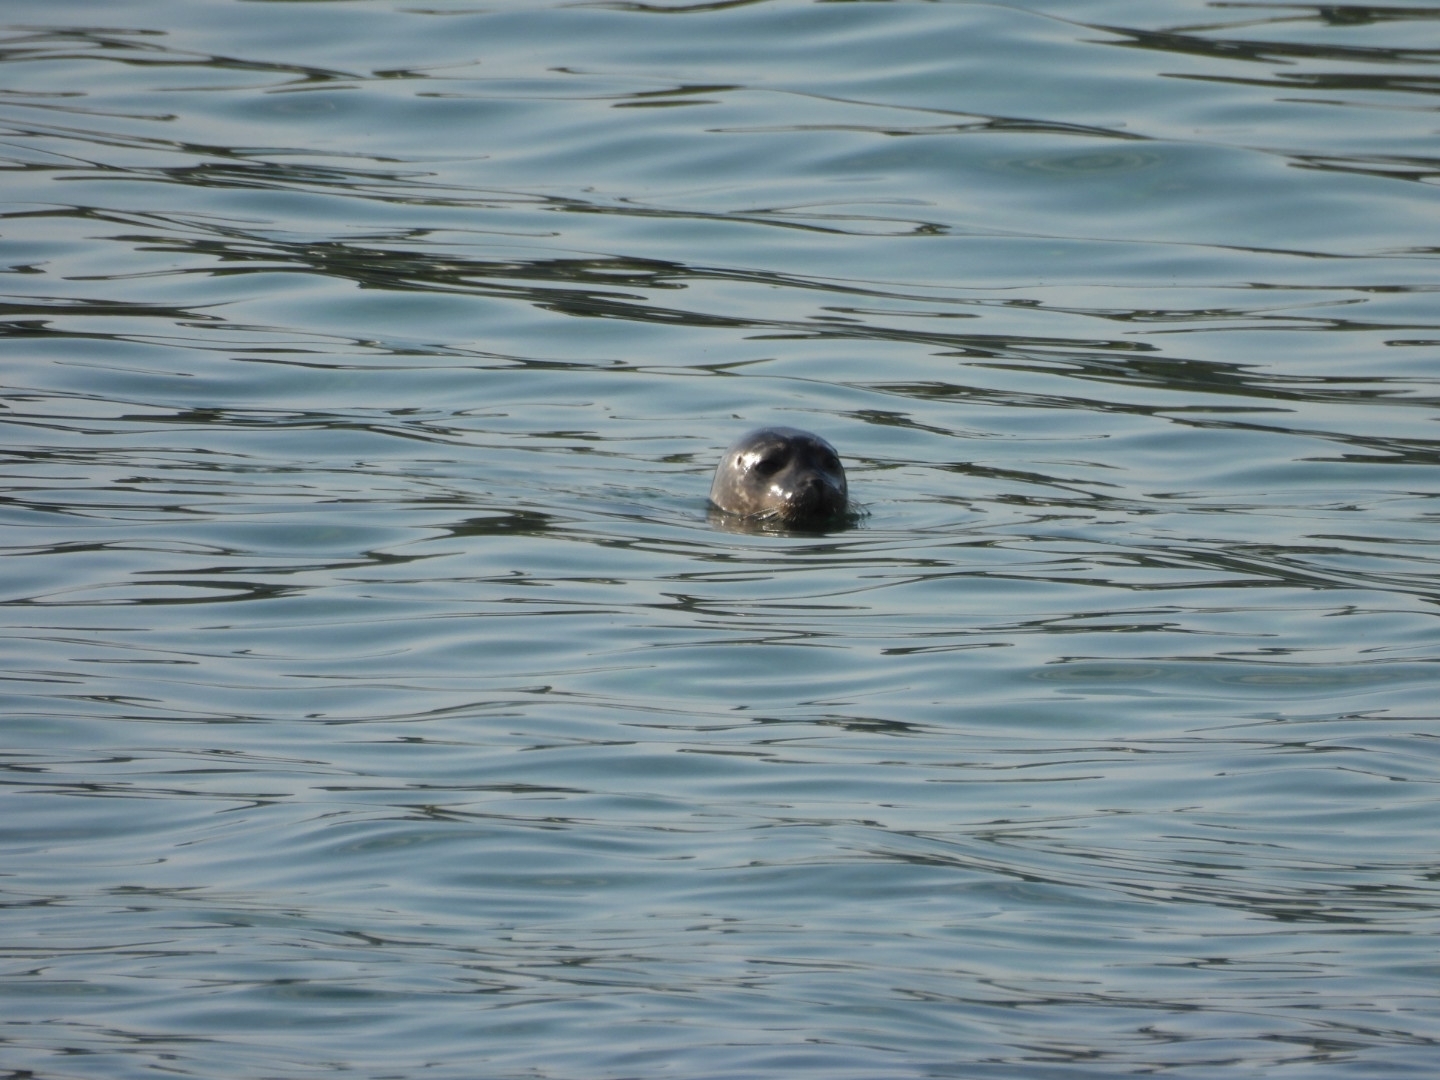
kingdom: Animalia
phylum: Chordata
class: Mammalia
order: Carnivora
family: Phocidae
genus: Phoca
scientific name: Phoca vitulina
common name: Harbor seal
